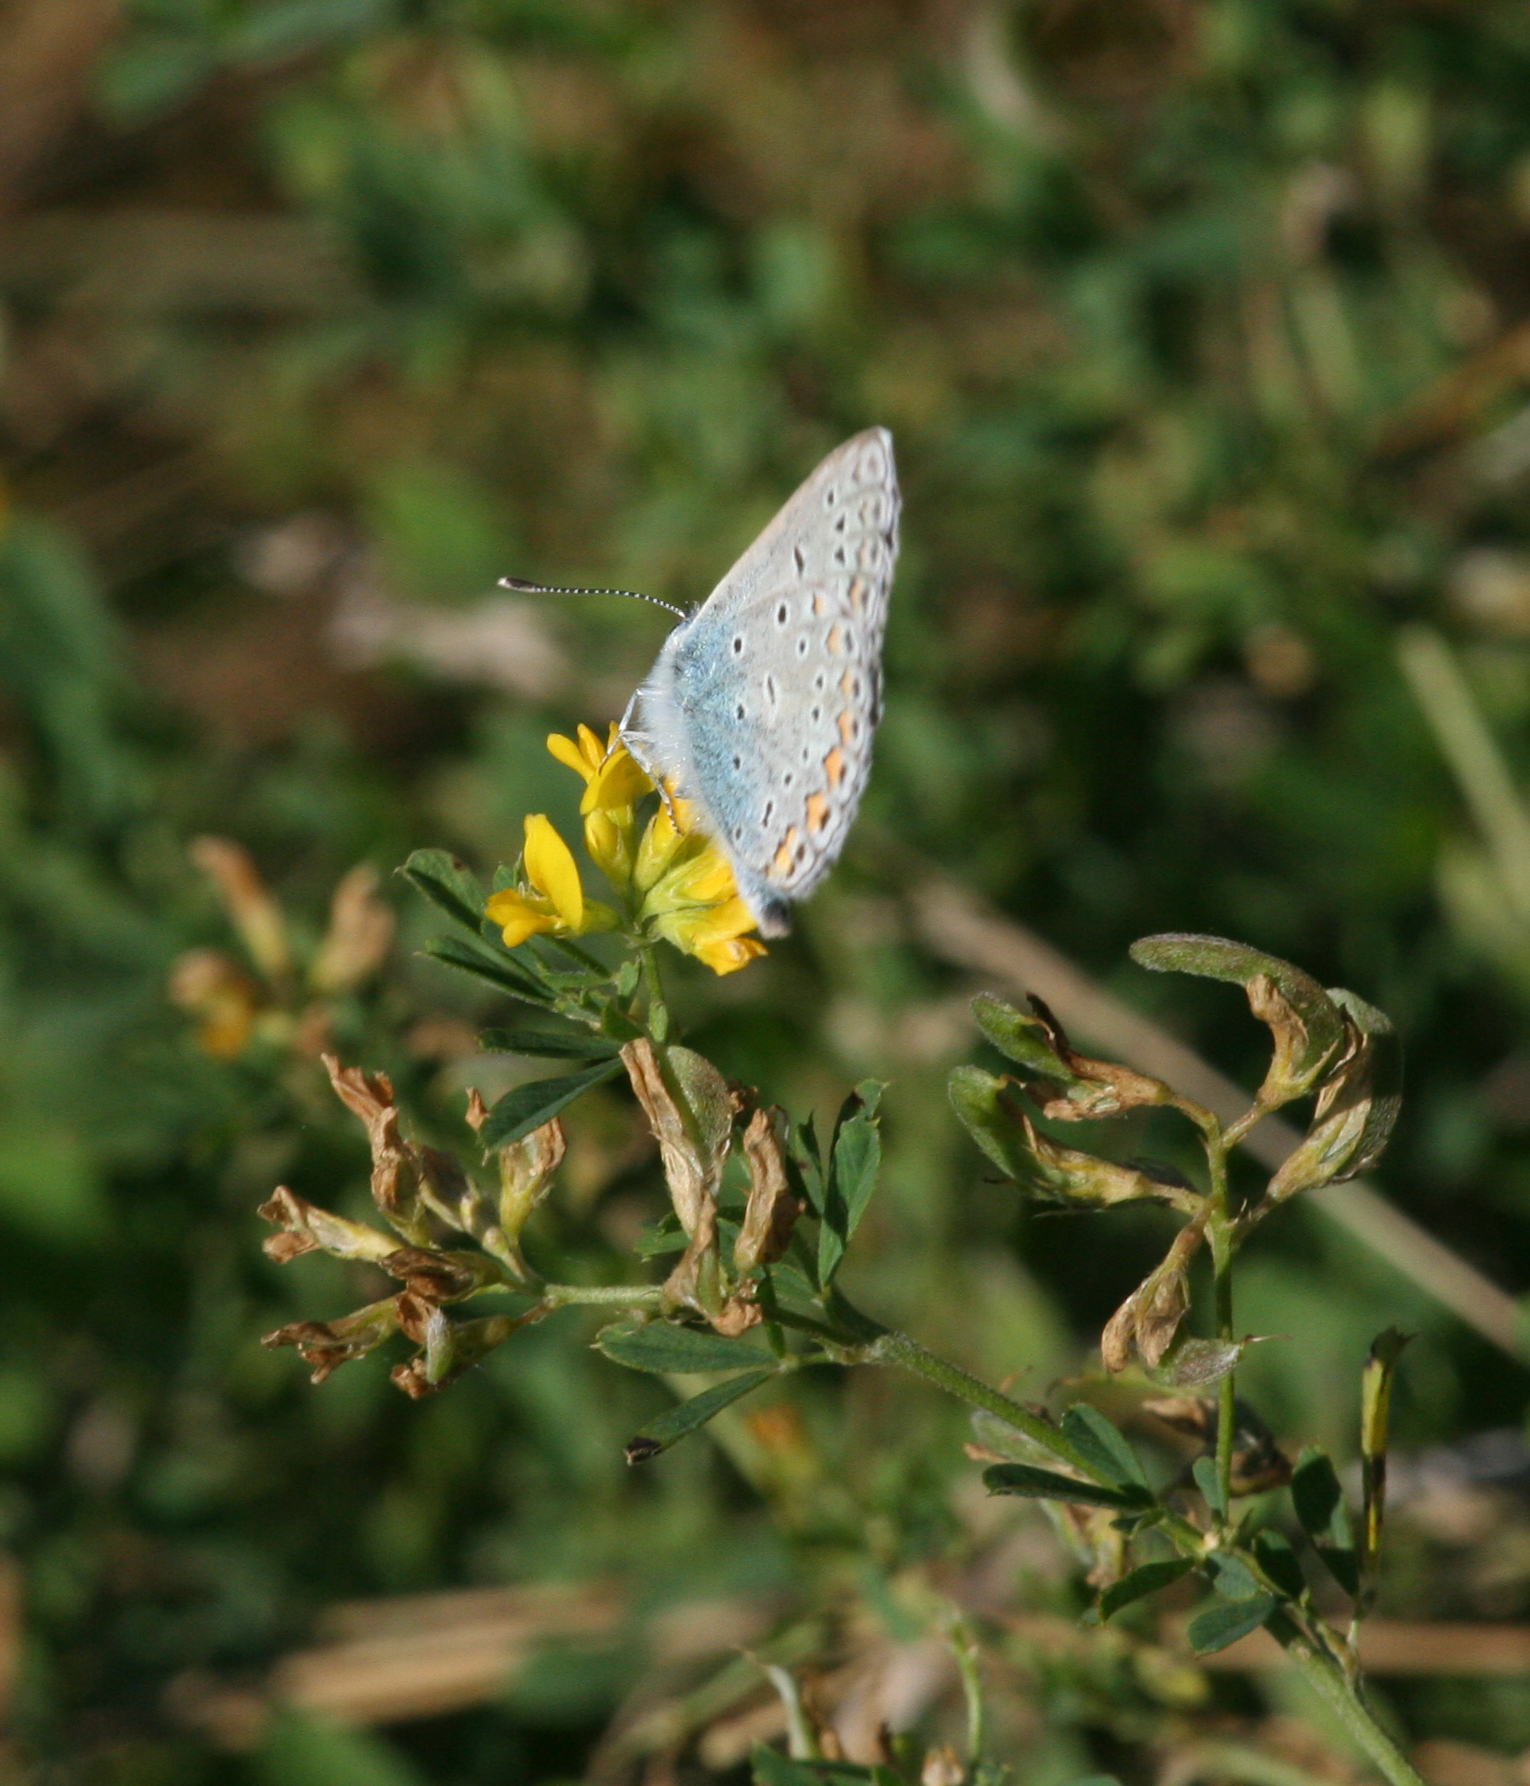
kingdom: Plantae
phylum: Tracheophyta
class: Magnoliopsida
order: Fabales
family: Fabaceae
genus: Medicago
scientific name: Medicago falcata
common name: Sickle medick
